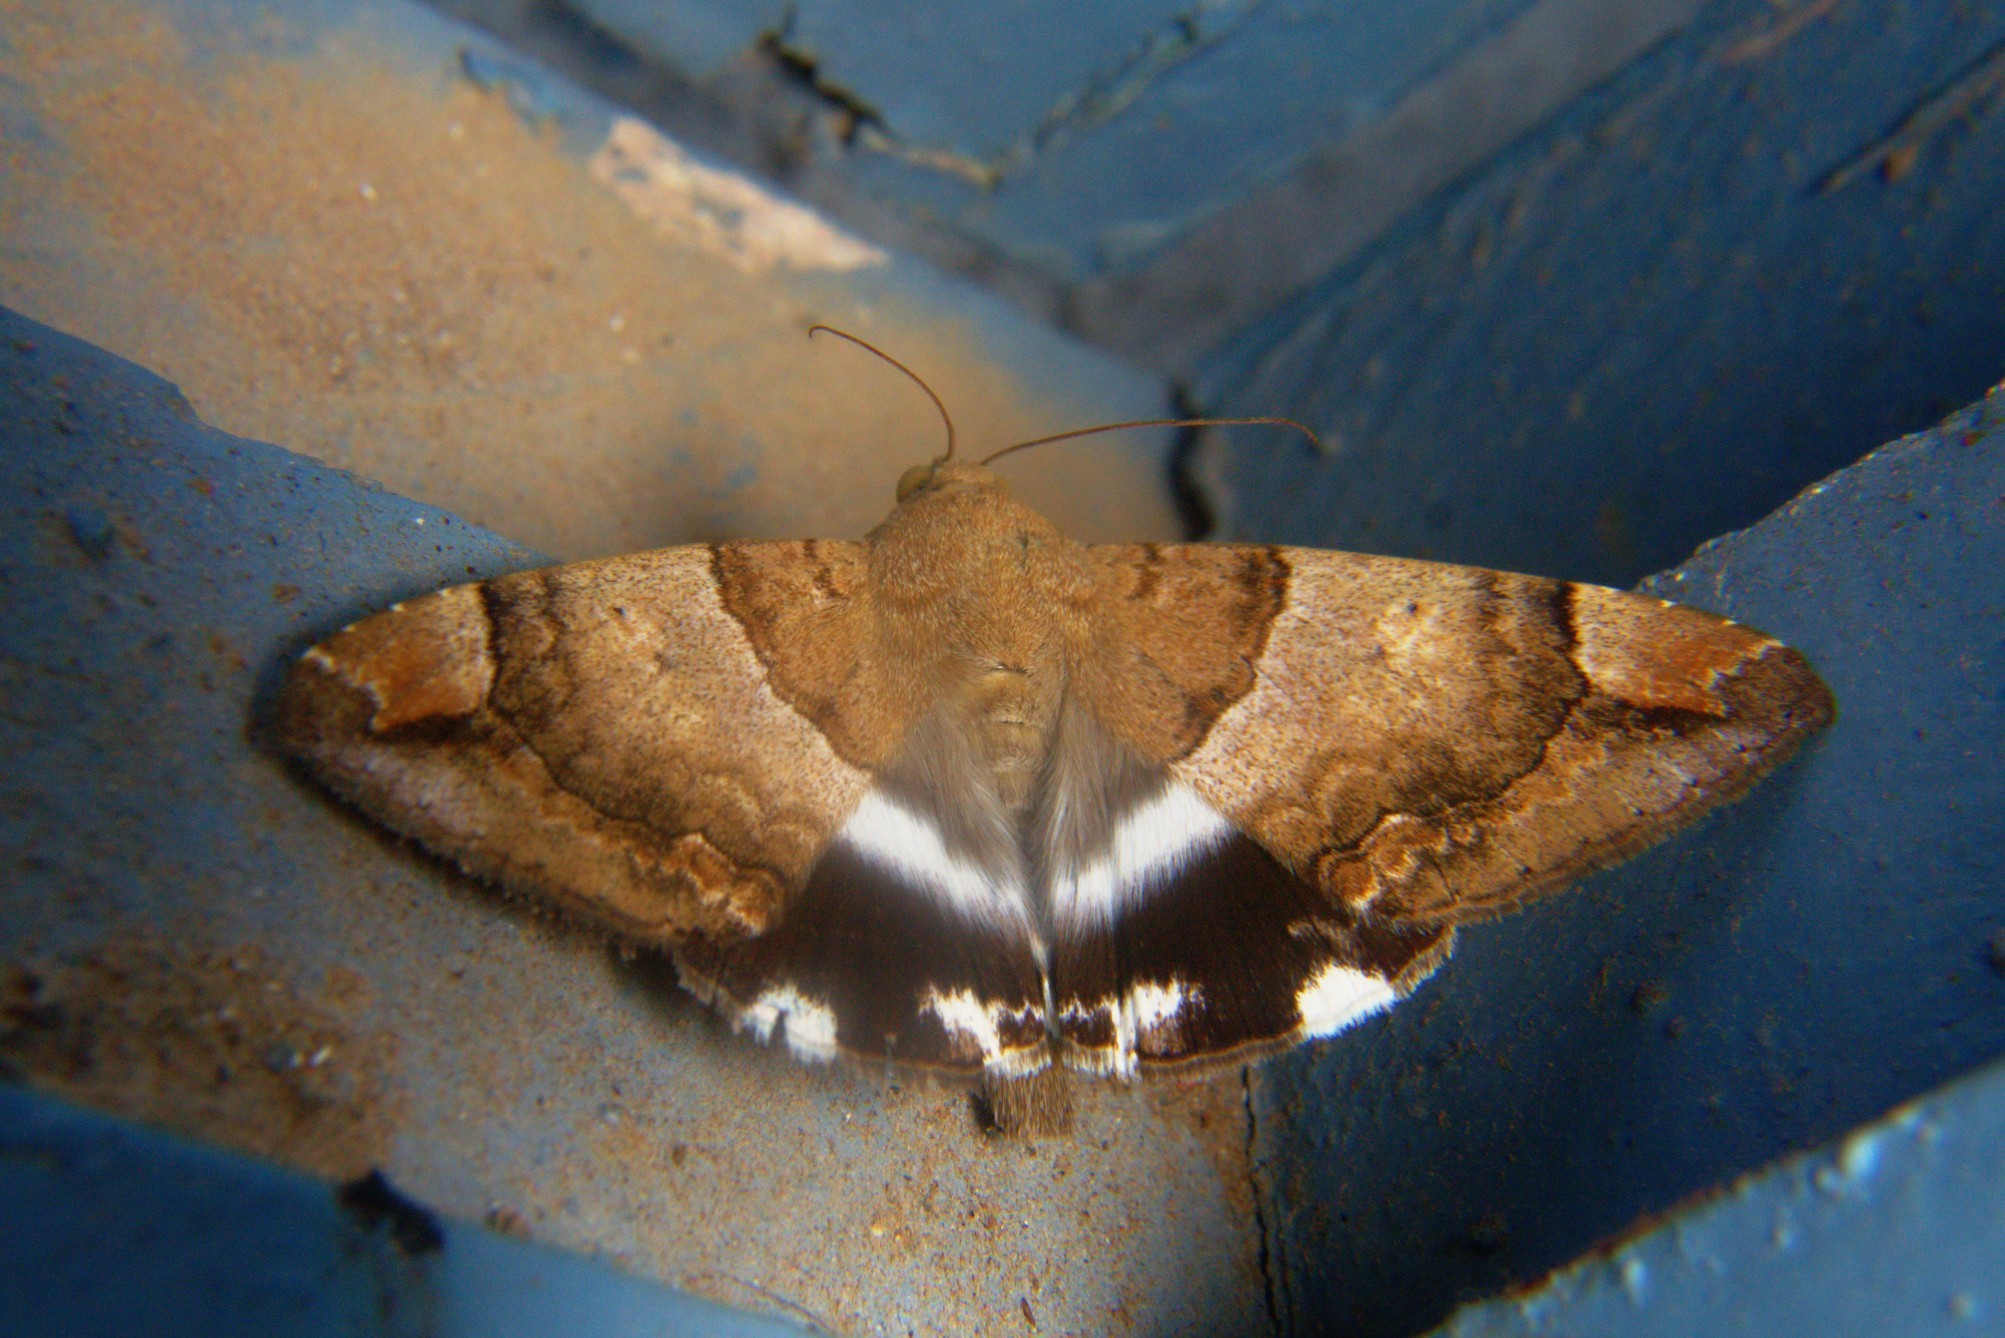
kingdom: Animalia
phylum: Arthropoda
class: Insecta
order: Lepidoptera
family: Erebidae
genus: Achaea
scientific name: Achaea janata
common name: Croton caterpillar
